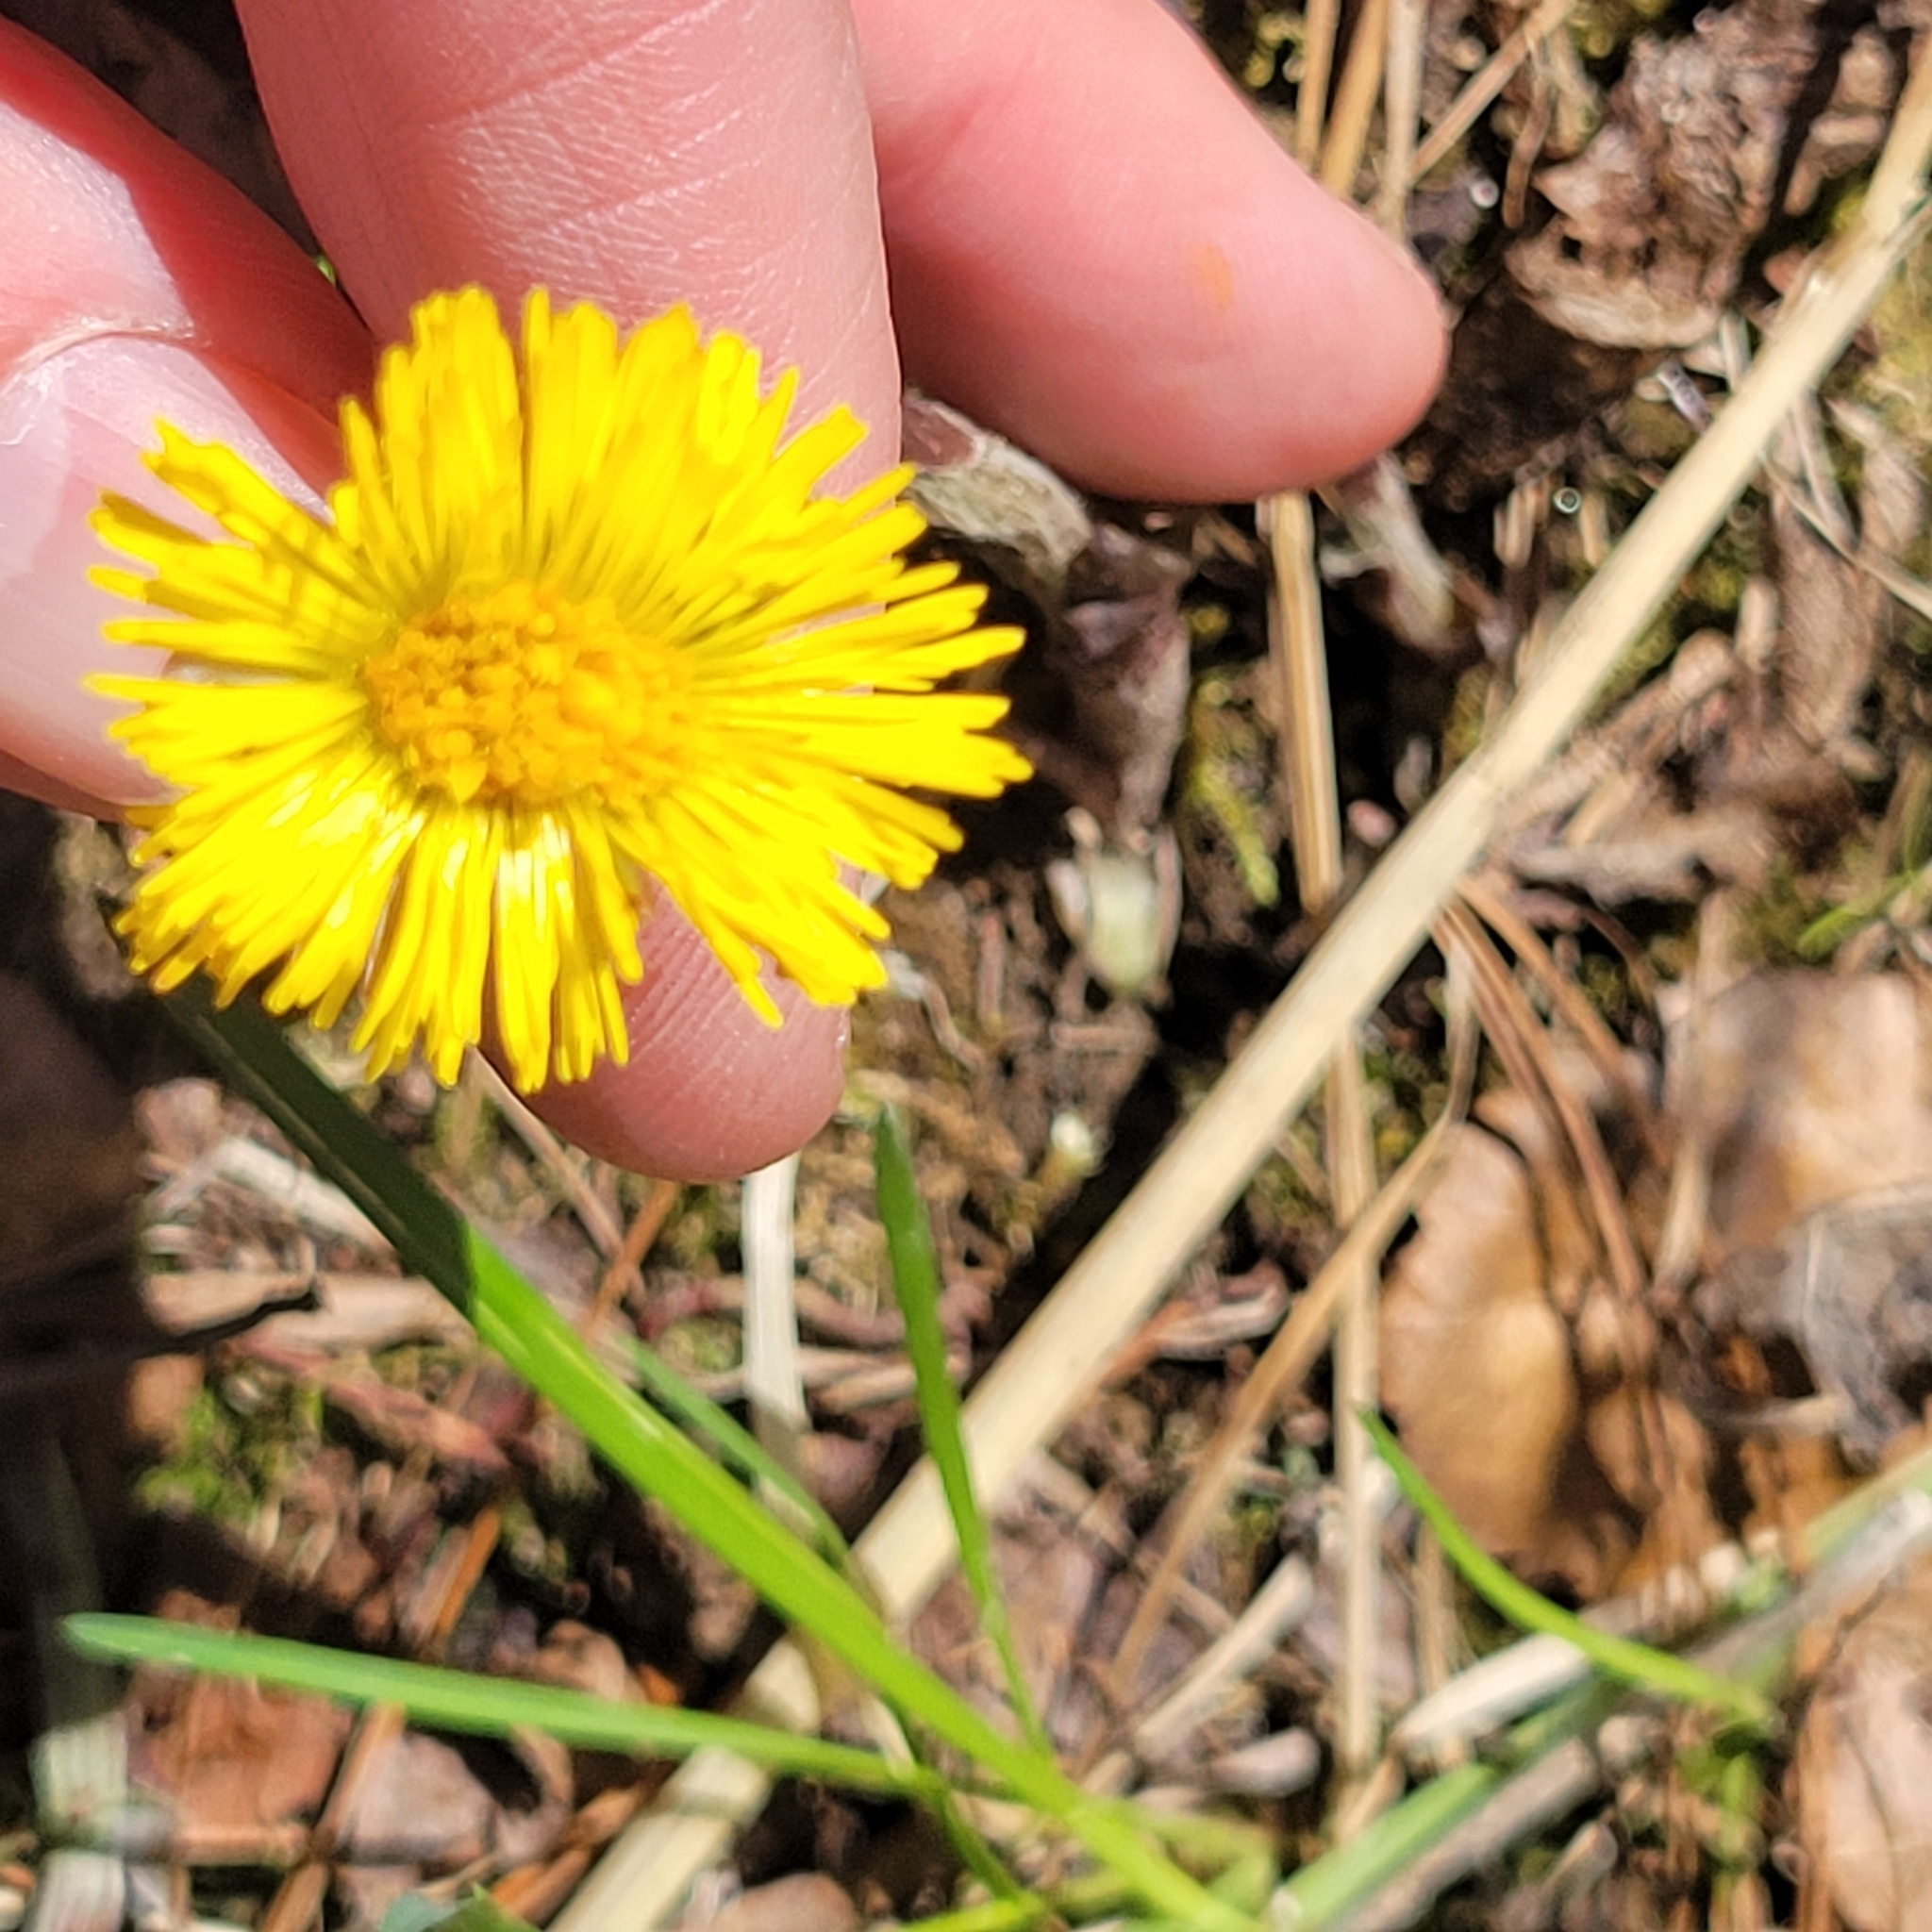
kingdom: Plantae
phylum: Tracheophyta
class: Magnoliopsida
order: Asterales
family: Asteraceae
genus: Tussilago
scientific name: Tussilago farfara
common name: Coltsfoot
